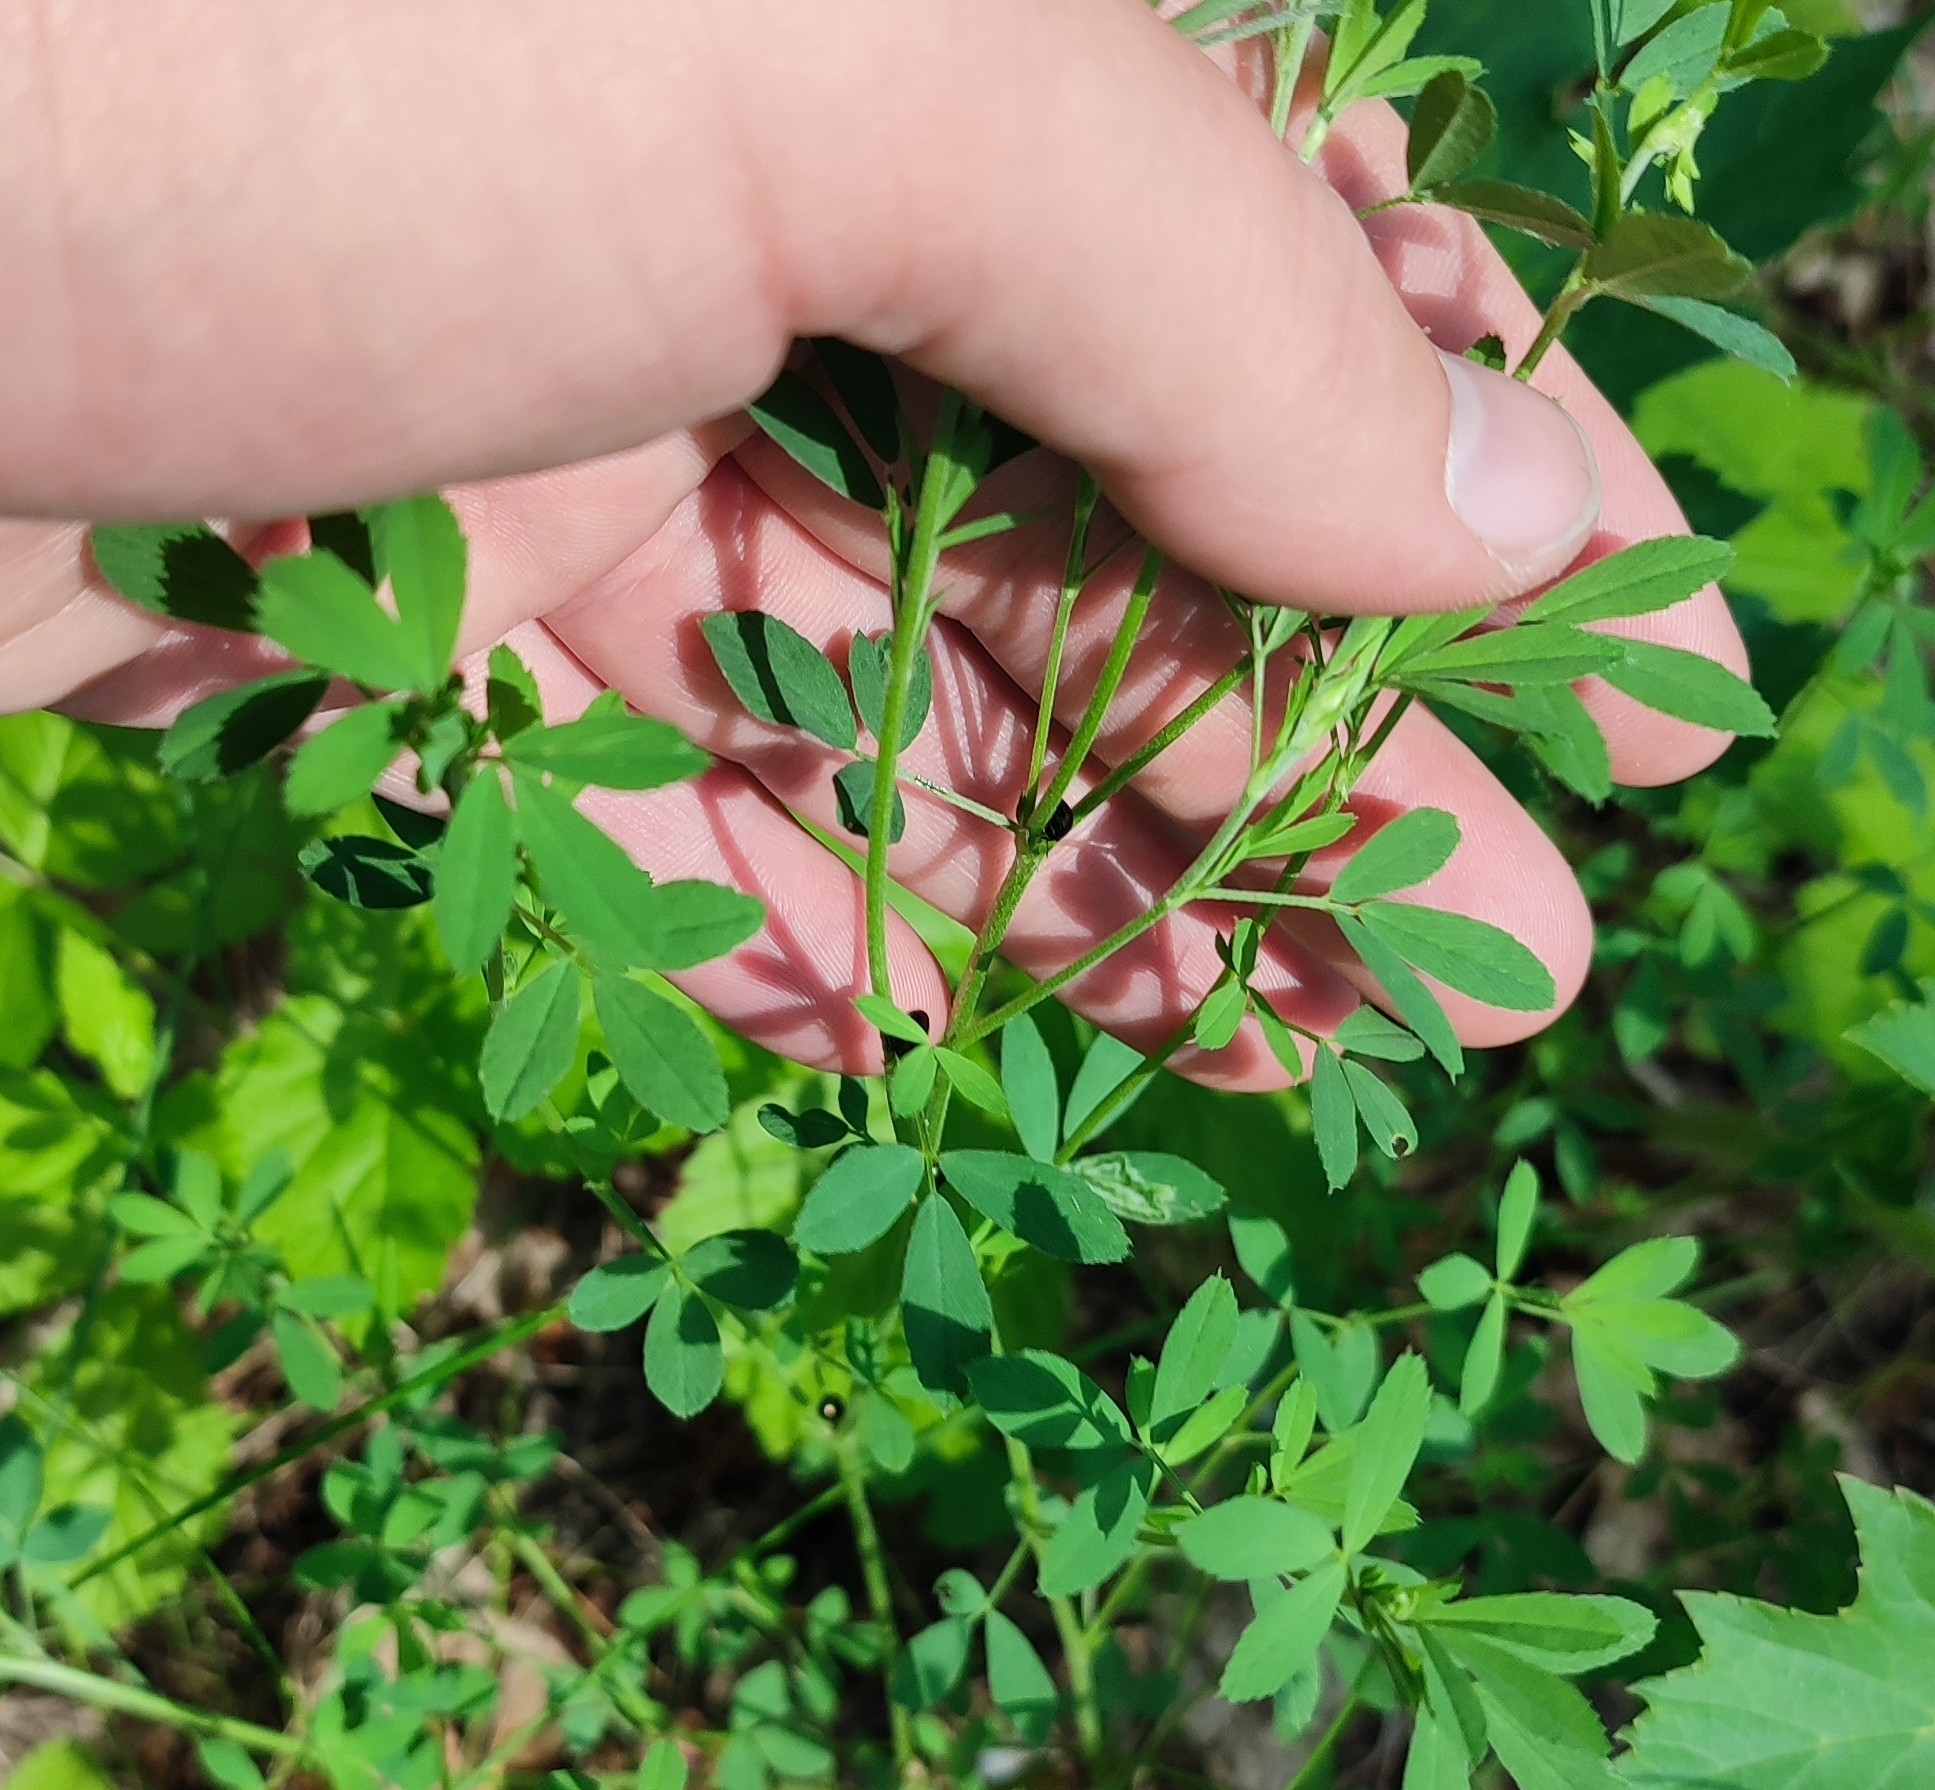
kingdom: Plantae
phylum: Tracheophyta
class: Magnoliopsida
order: Fabales
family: Fabaceae
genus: Medicago
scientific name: Medicago falcata
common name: Sickle medick
